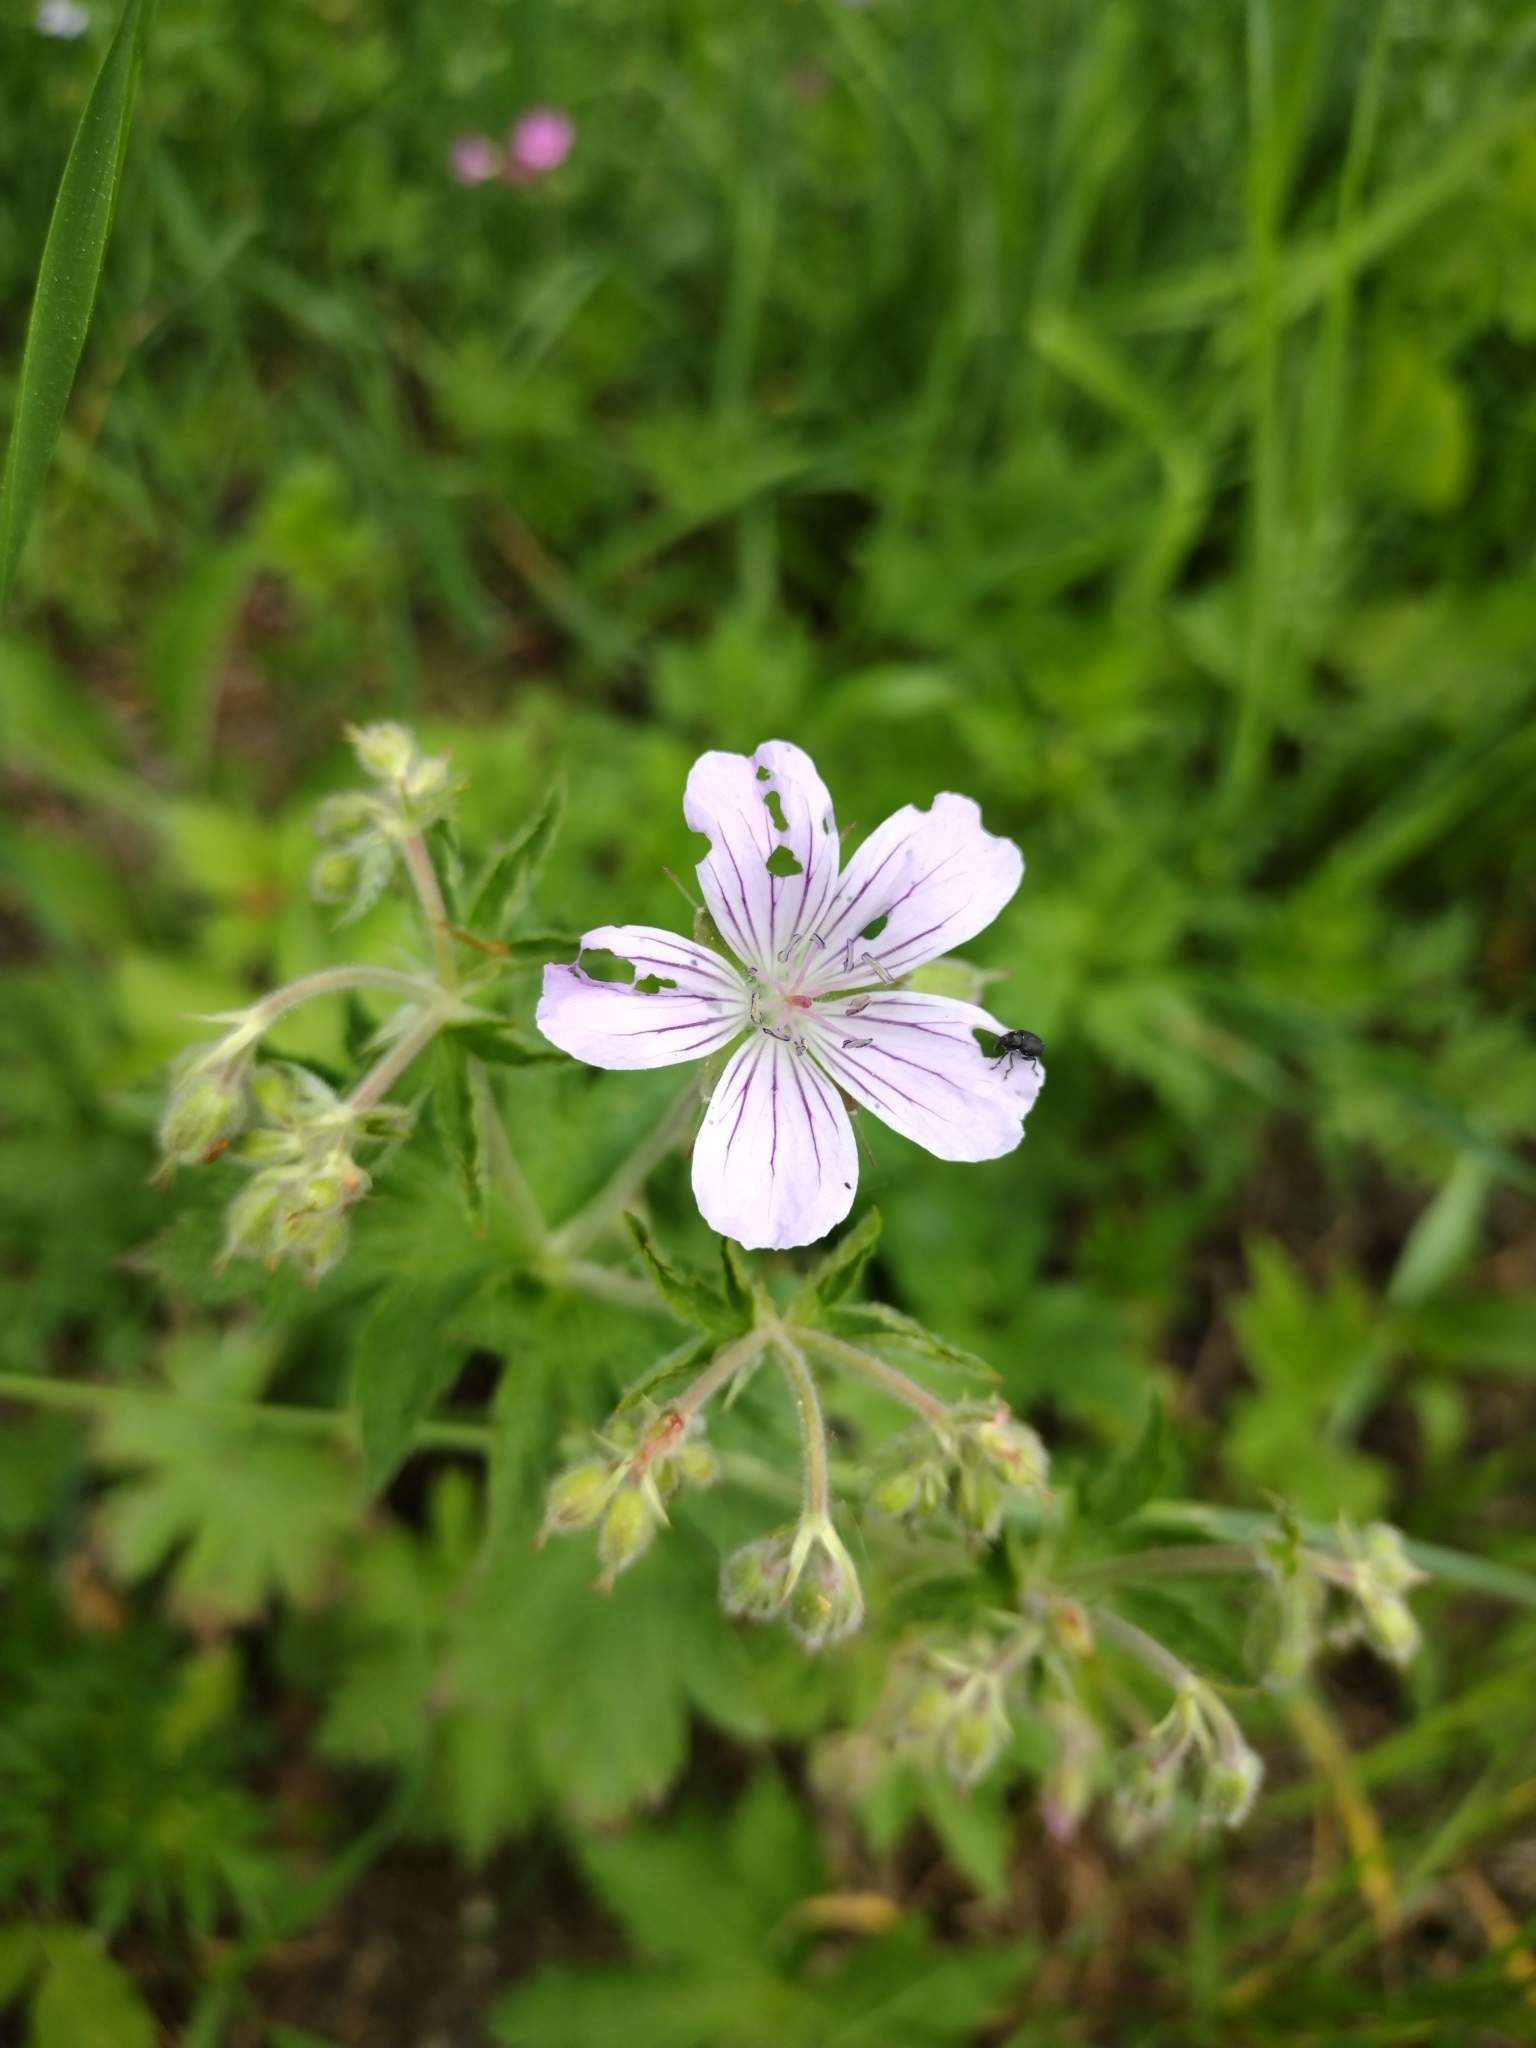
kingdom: Plantae
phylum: Tracheophyta
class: Magnoliopsida
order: Geraniales
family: Geraniaceae
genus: Geranium
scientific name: Geranium sylvaticum
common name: Wood crane's-bill
